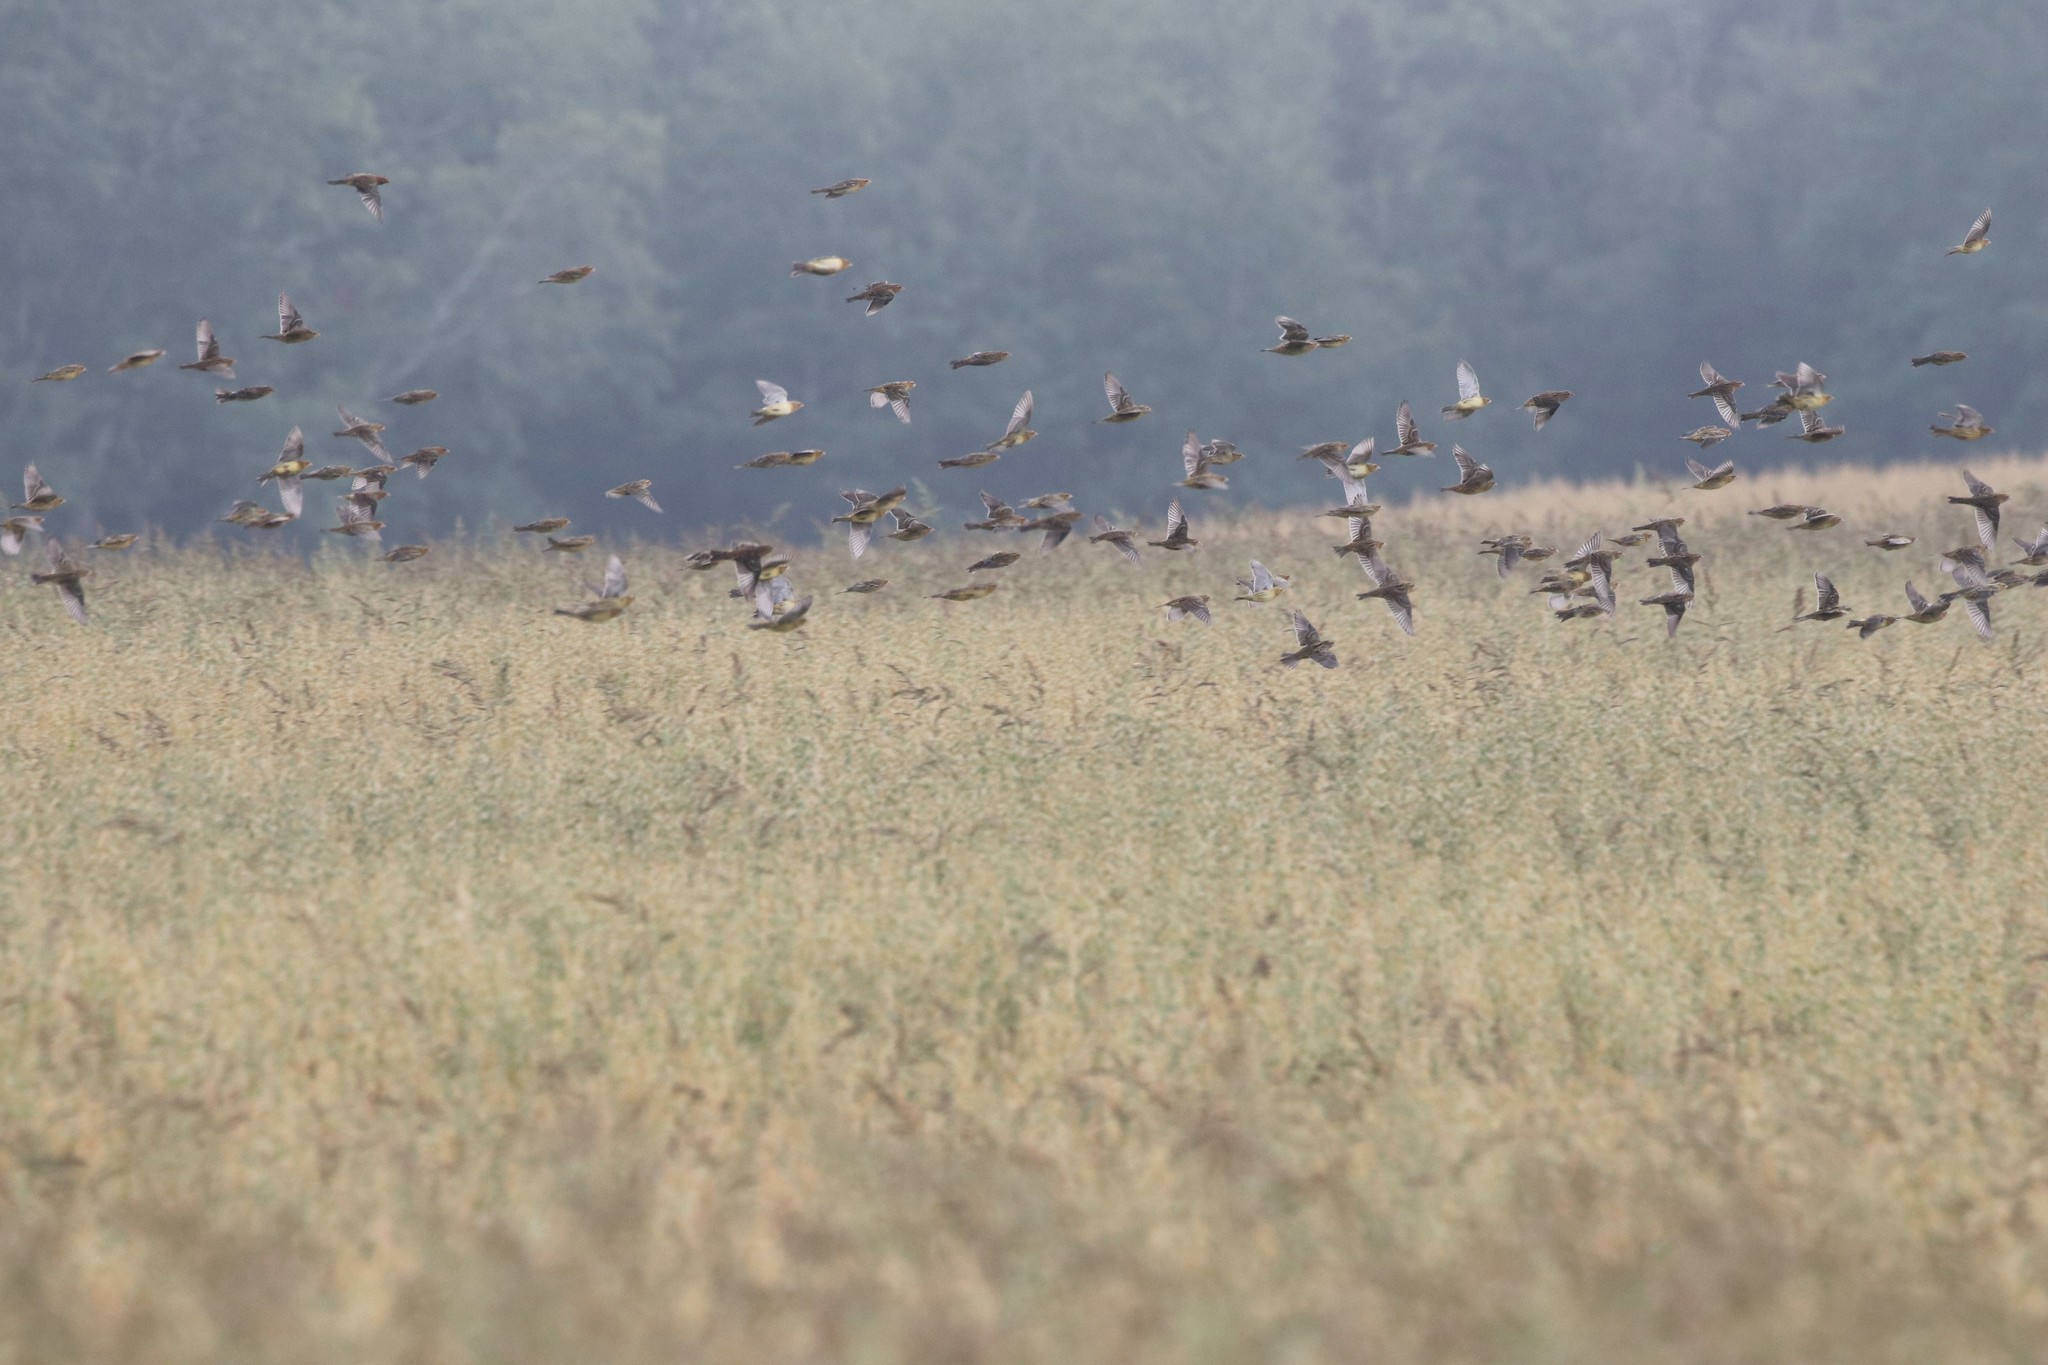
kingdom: Animalia
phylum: Chordata
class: Aves
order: Passeriformes
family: Icteridae
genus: Dolichonyx
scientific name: Dolichonyx oryzivorus
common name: Bobolink
